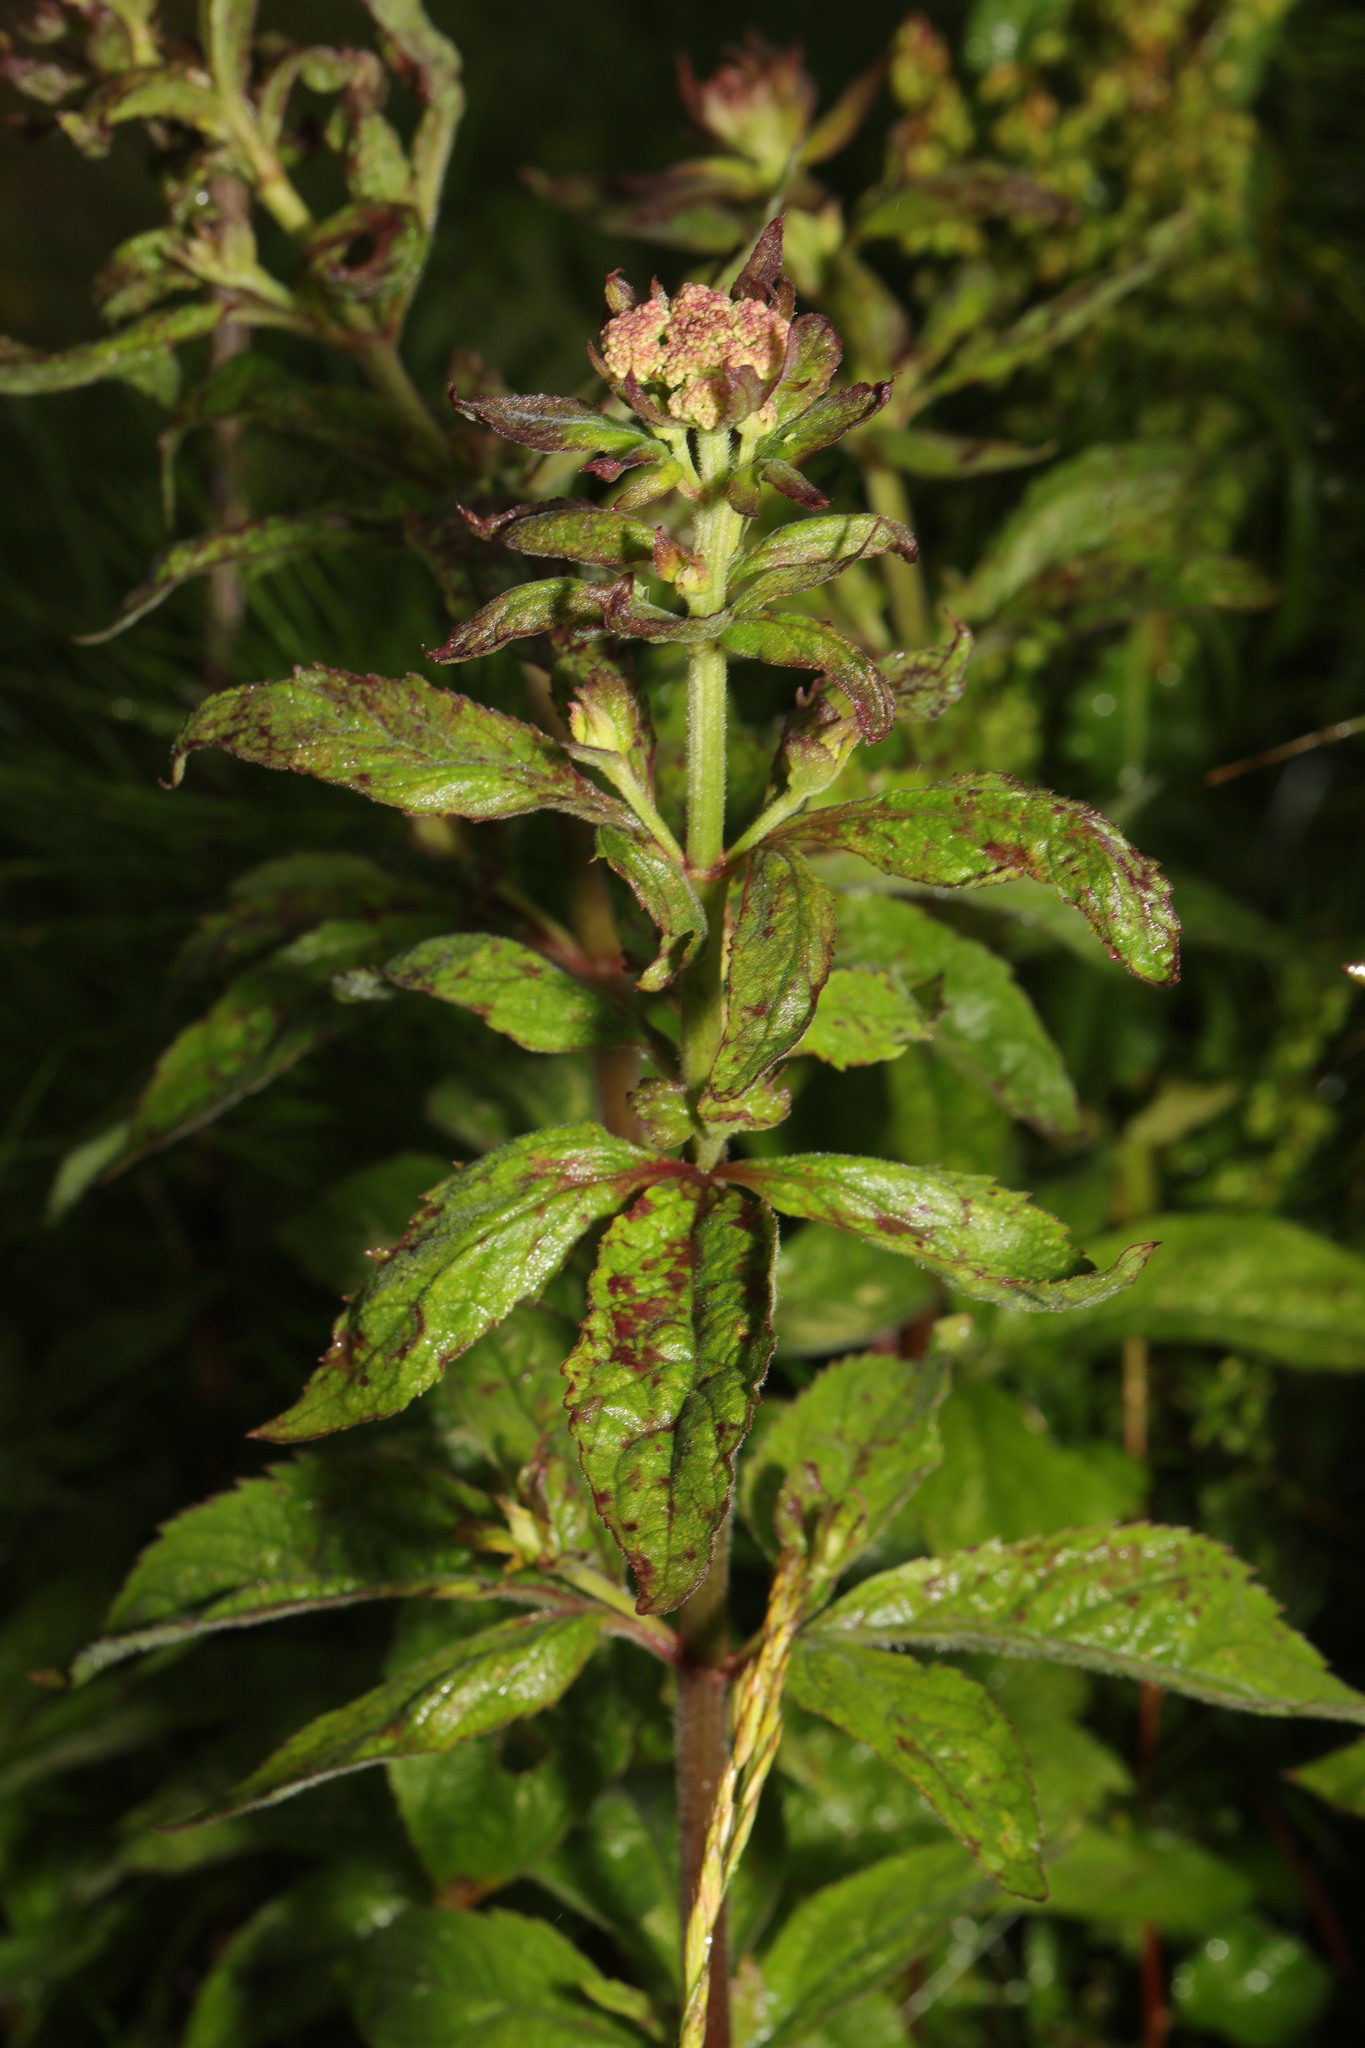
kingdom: Plantae
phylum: Tracheophyta
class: Magnoliopsida
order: Asterales
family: Asteraceae
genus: Eupatorium
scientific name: Eupatorium cannabinum
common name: Hemp-agrimony
